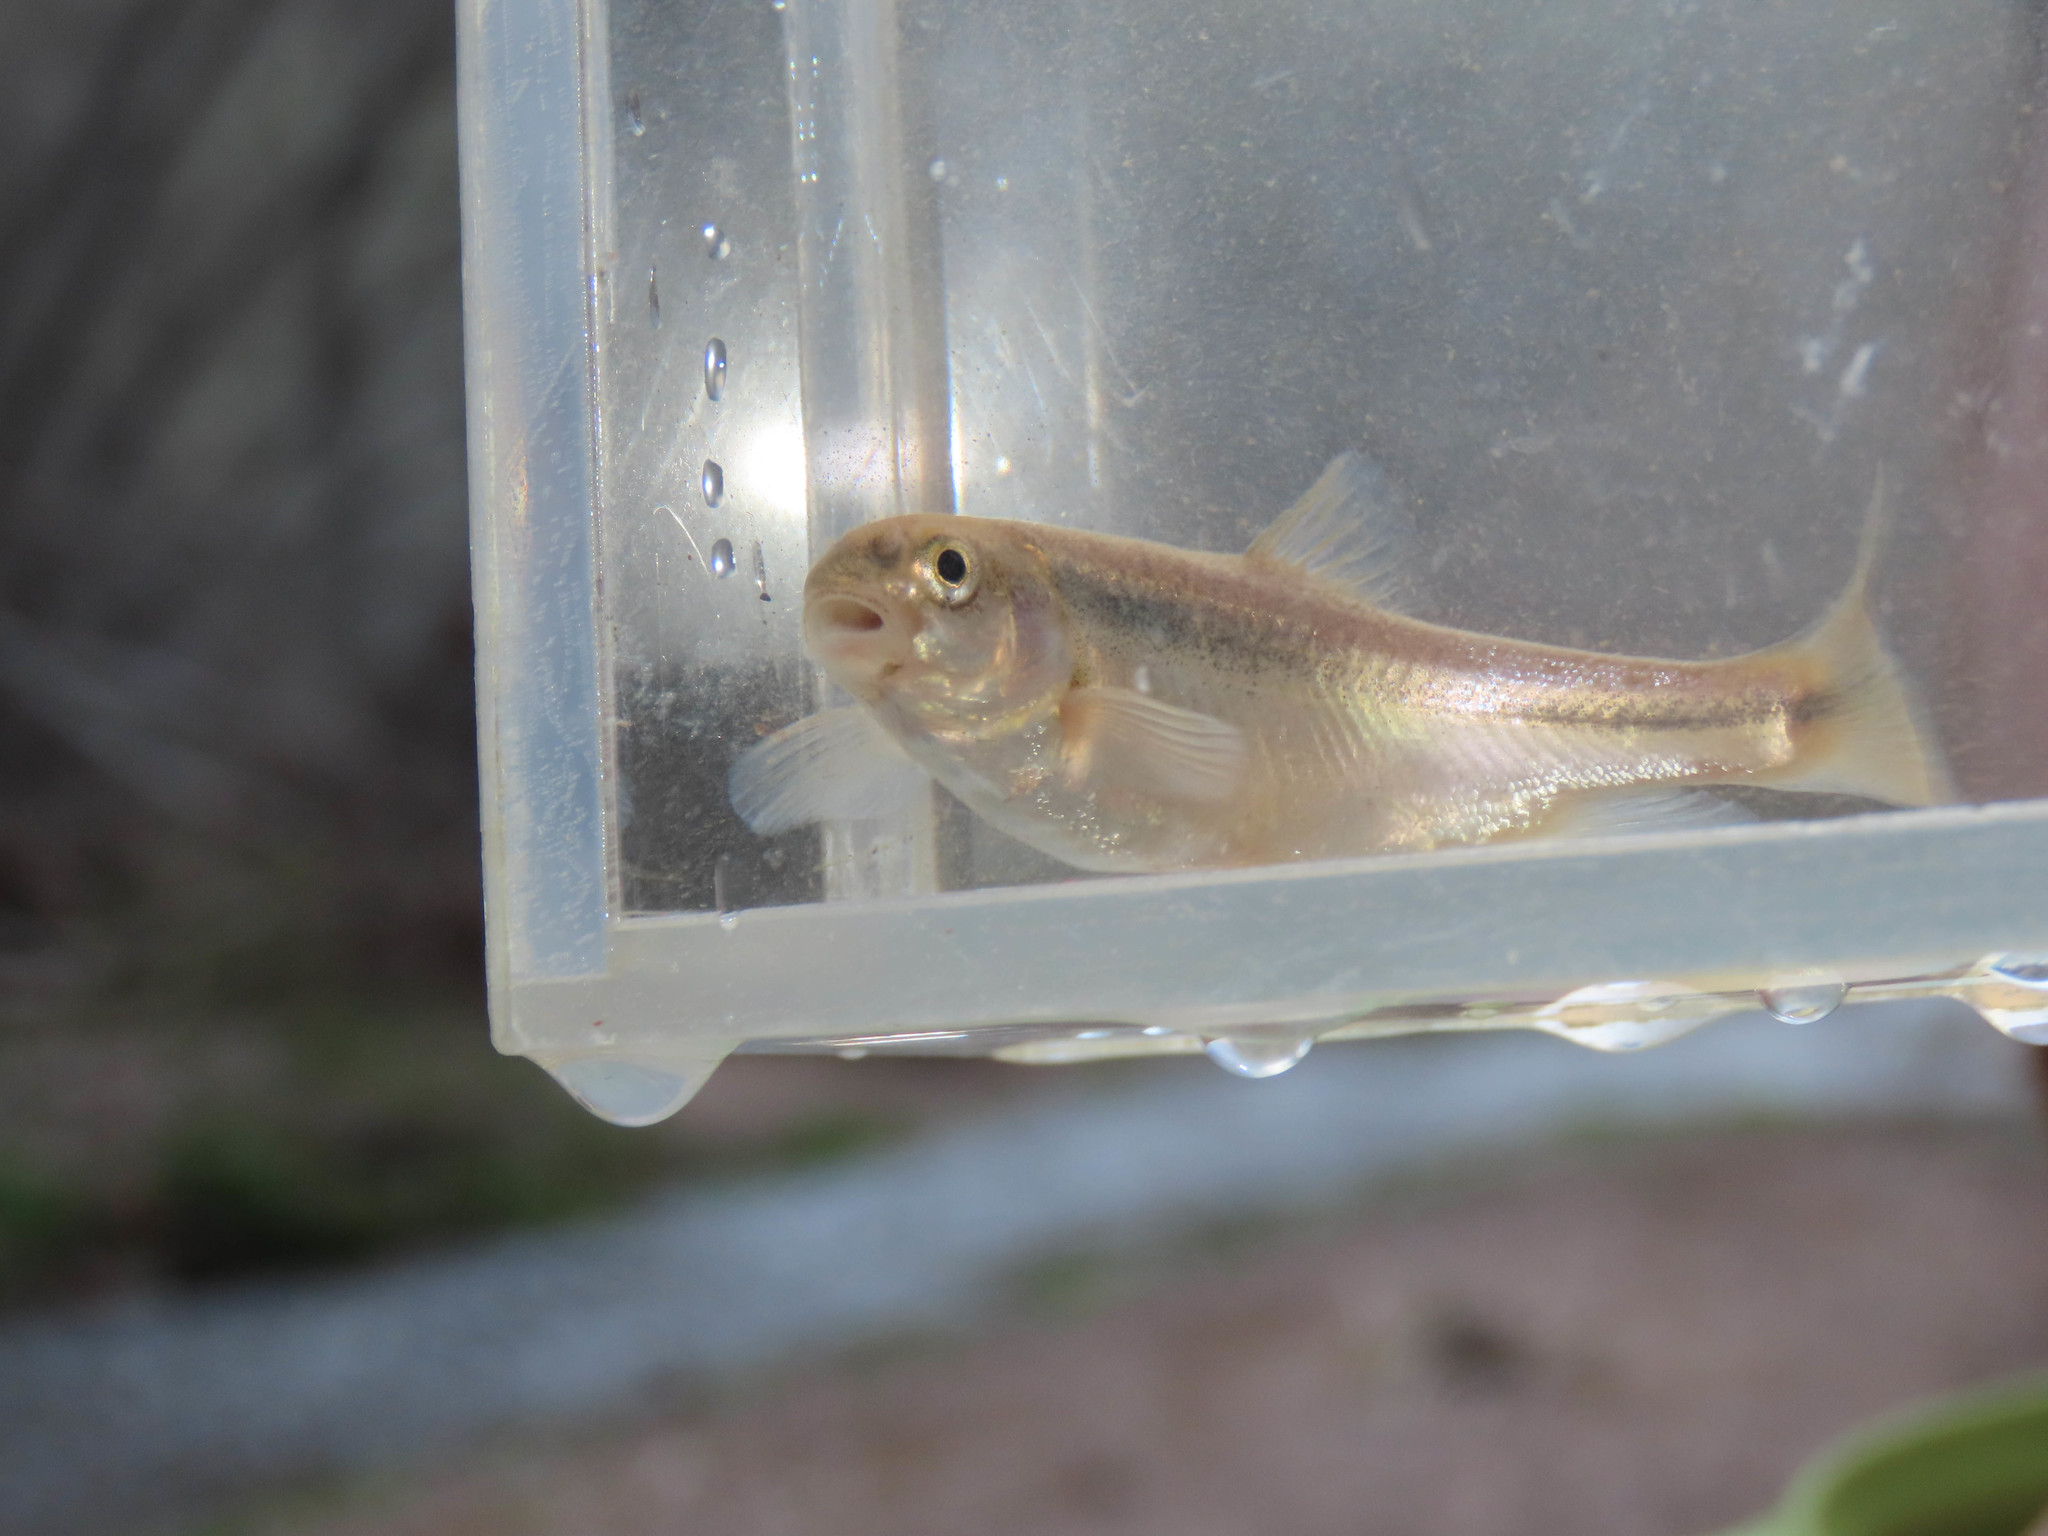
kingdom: Animalia
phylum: Chordata
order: Cypriniformes
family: Cyprinidae
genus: Agosia
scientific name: Agosia chrysogaster
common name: Longfin dace
